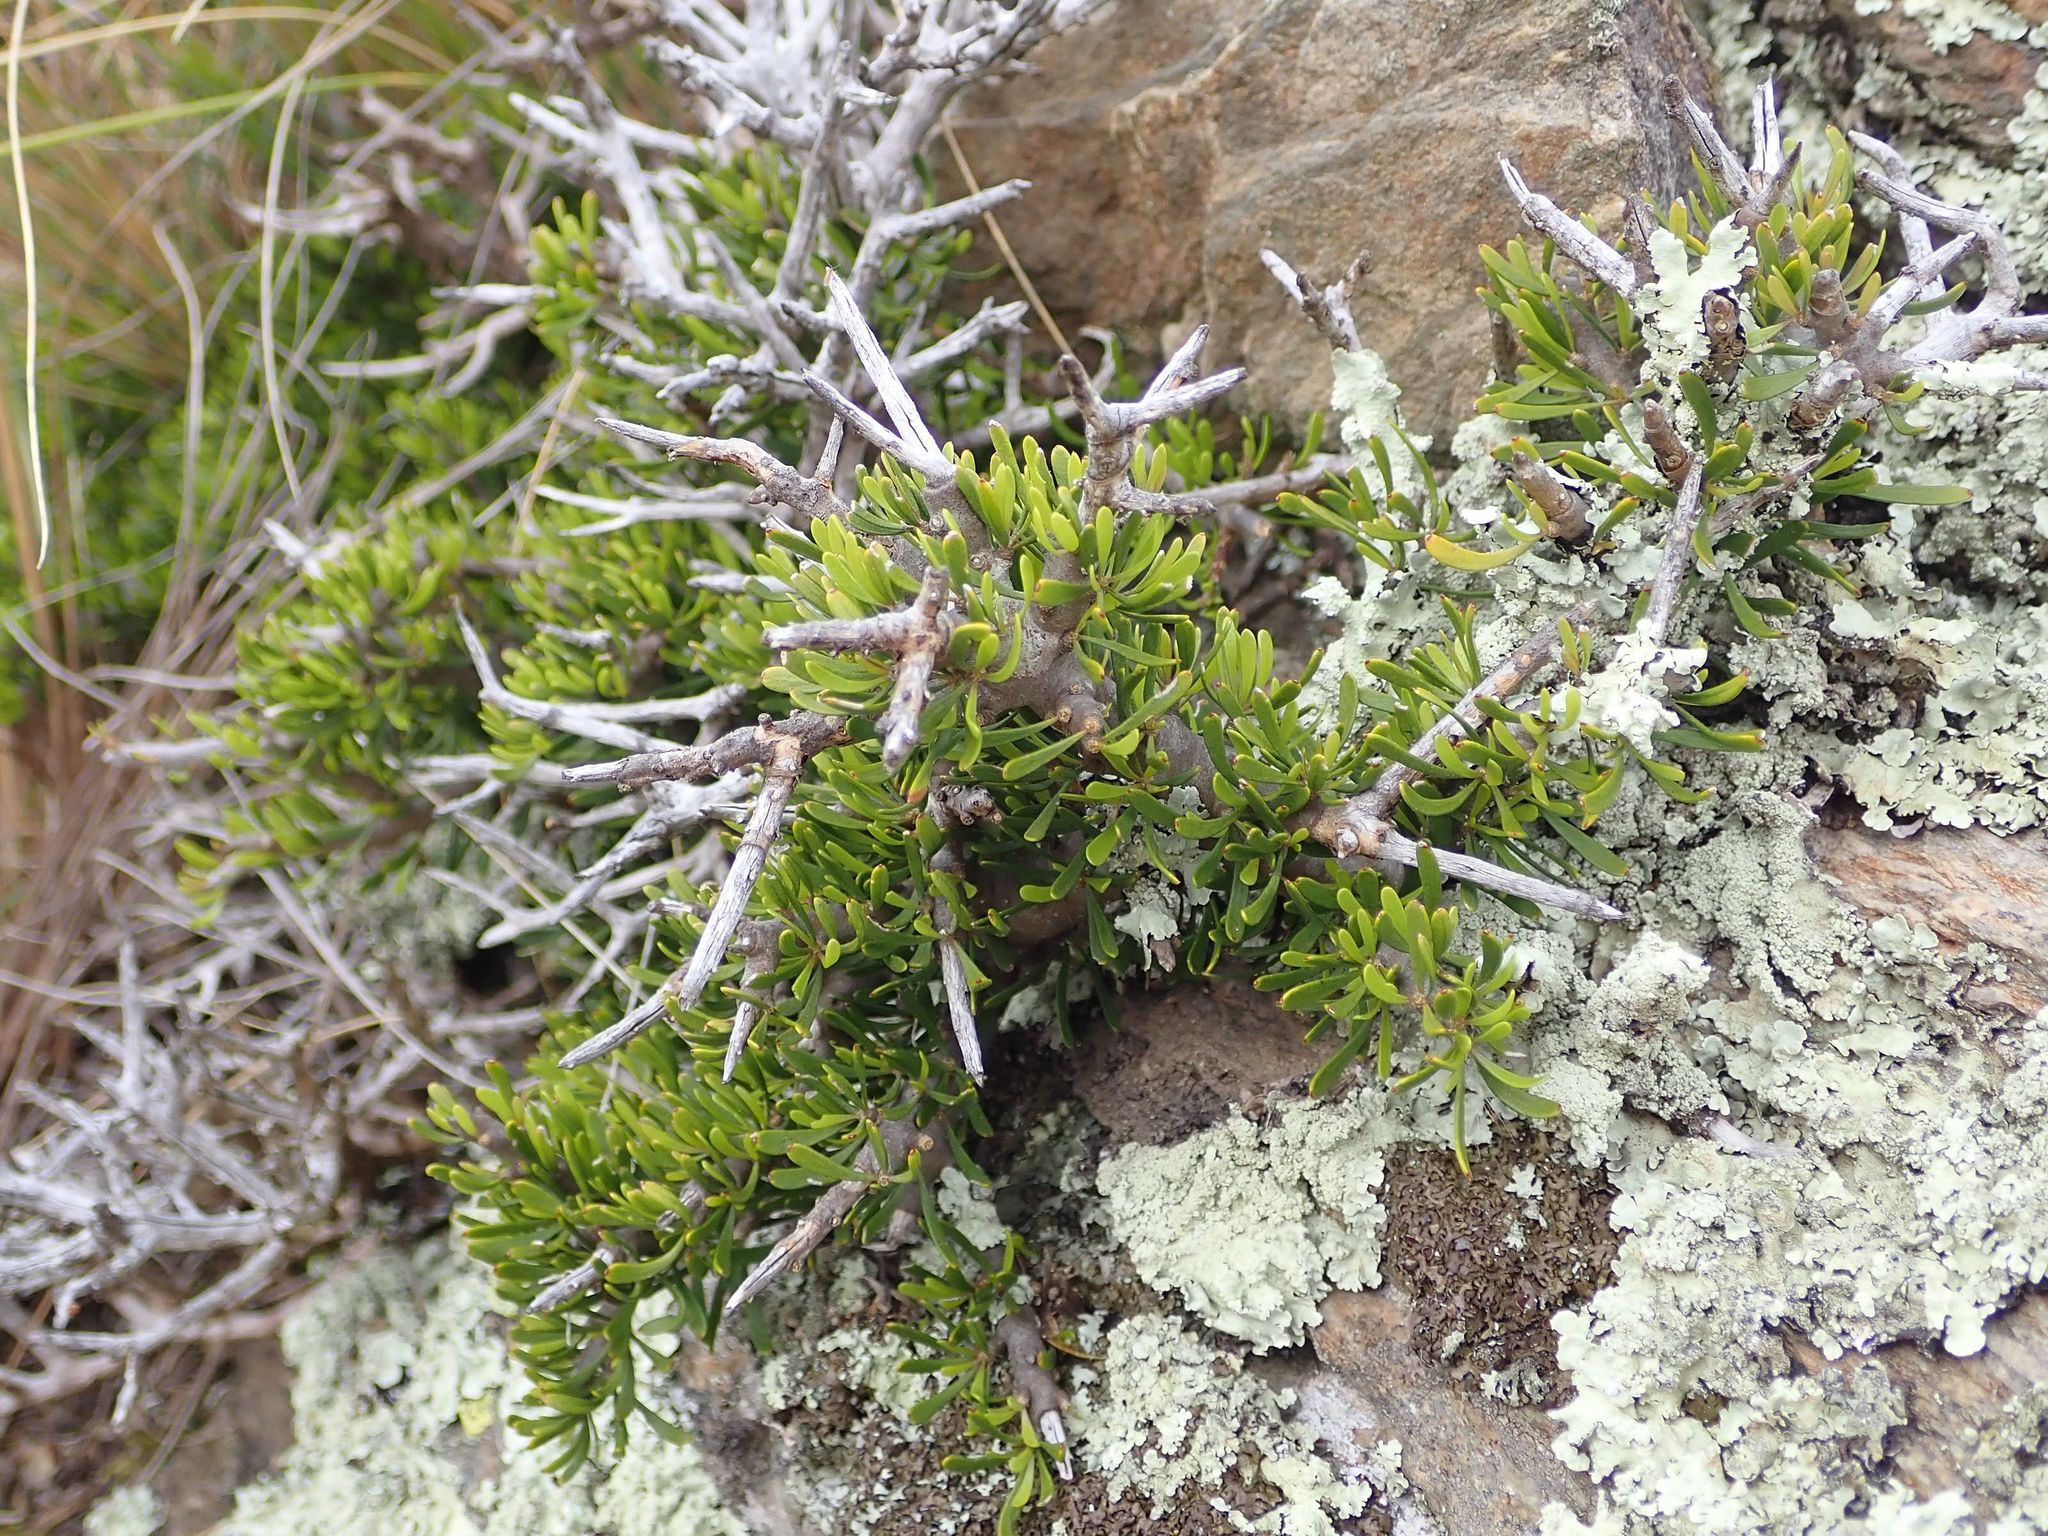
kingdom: Plantae
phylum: Tracheophyta
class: Magnoliopsida
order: Malpighiales
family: Violaceae
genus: Melicytus
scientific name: Melicytus alpinus
